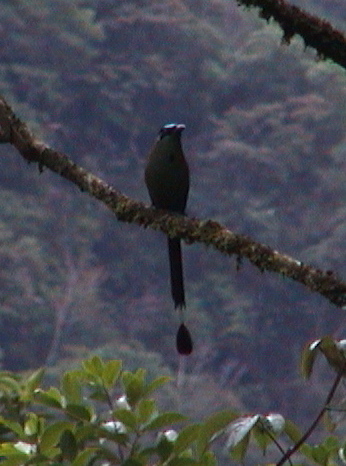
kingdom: Animalia
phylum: Chordata
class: Aves
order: Coraciiformes
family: Momotidae
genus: Momotus
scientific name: Momotus aequatorialis
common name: Andean motmot
